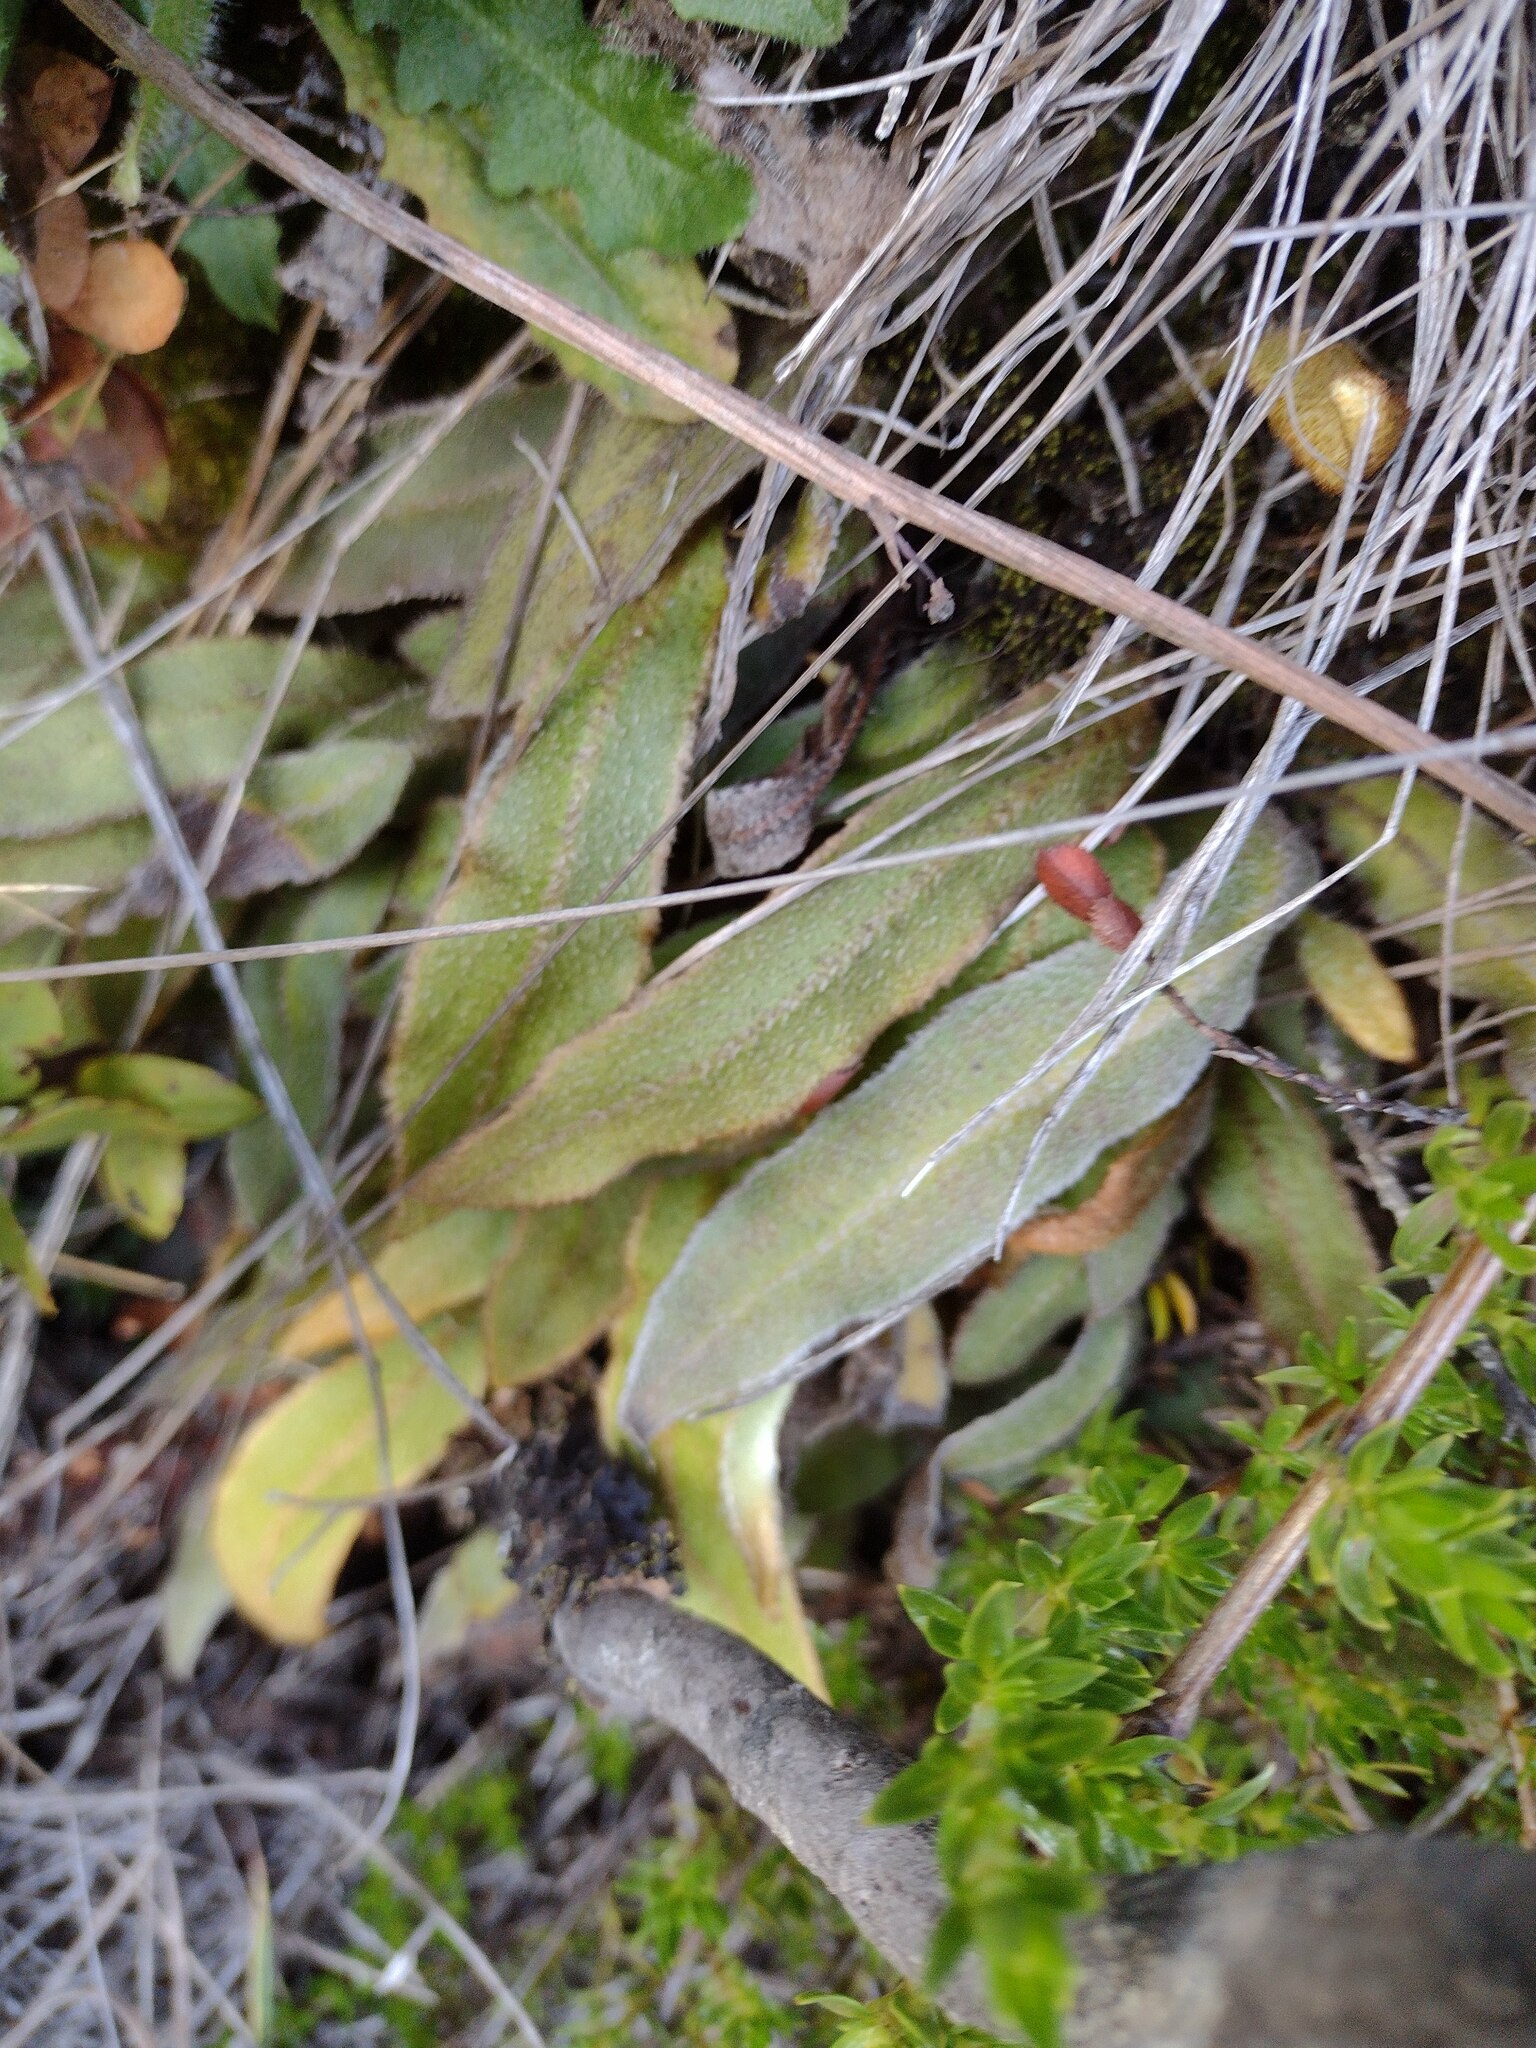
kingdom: Plantae
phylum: Tracheophyta
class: Polypodiopsida
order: Polypodiales
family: Dryopteridaceae
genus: Elaphoglossum
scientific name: Elaphoglossum paleaceum
